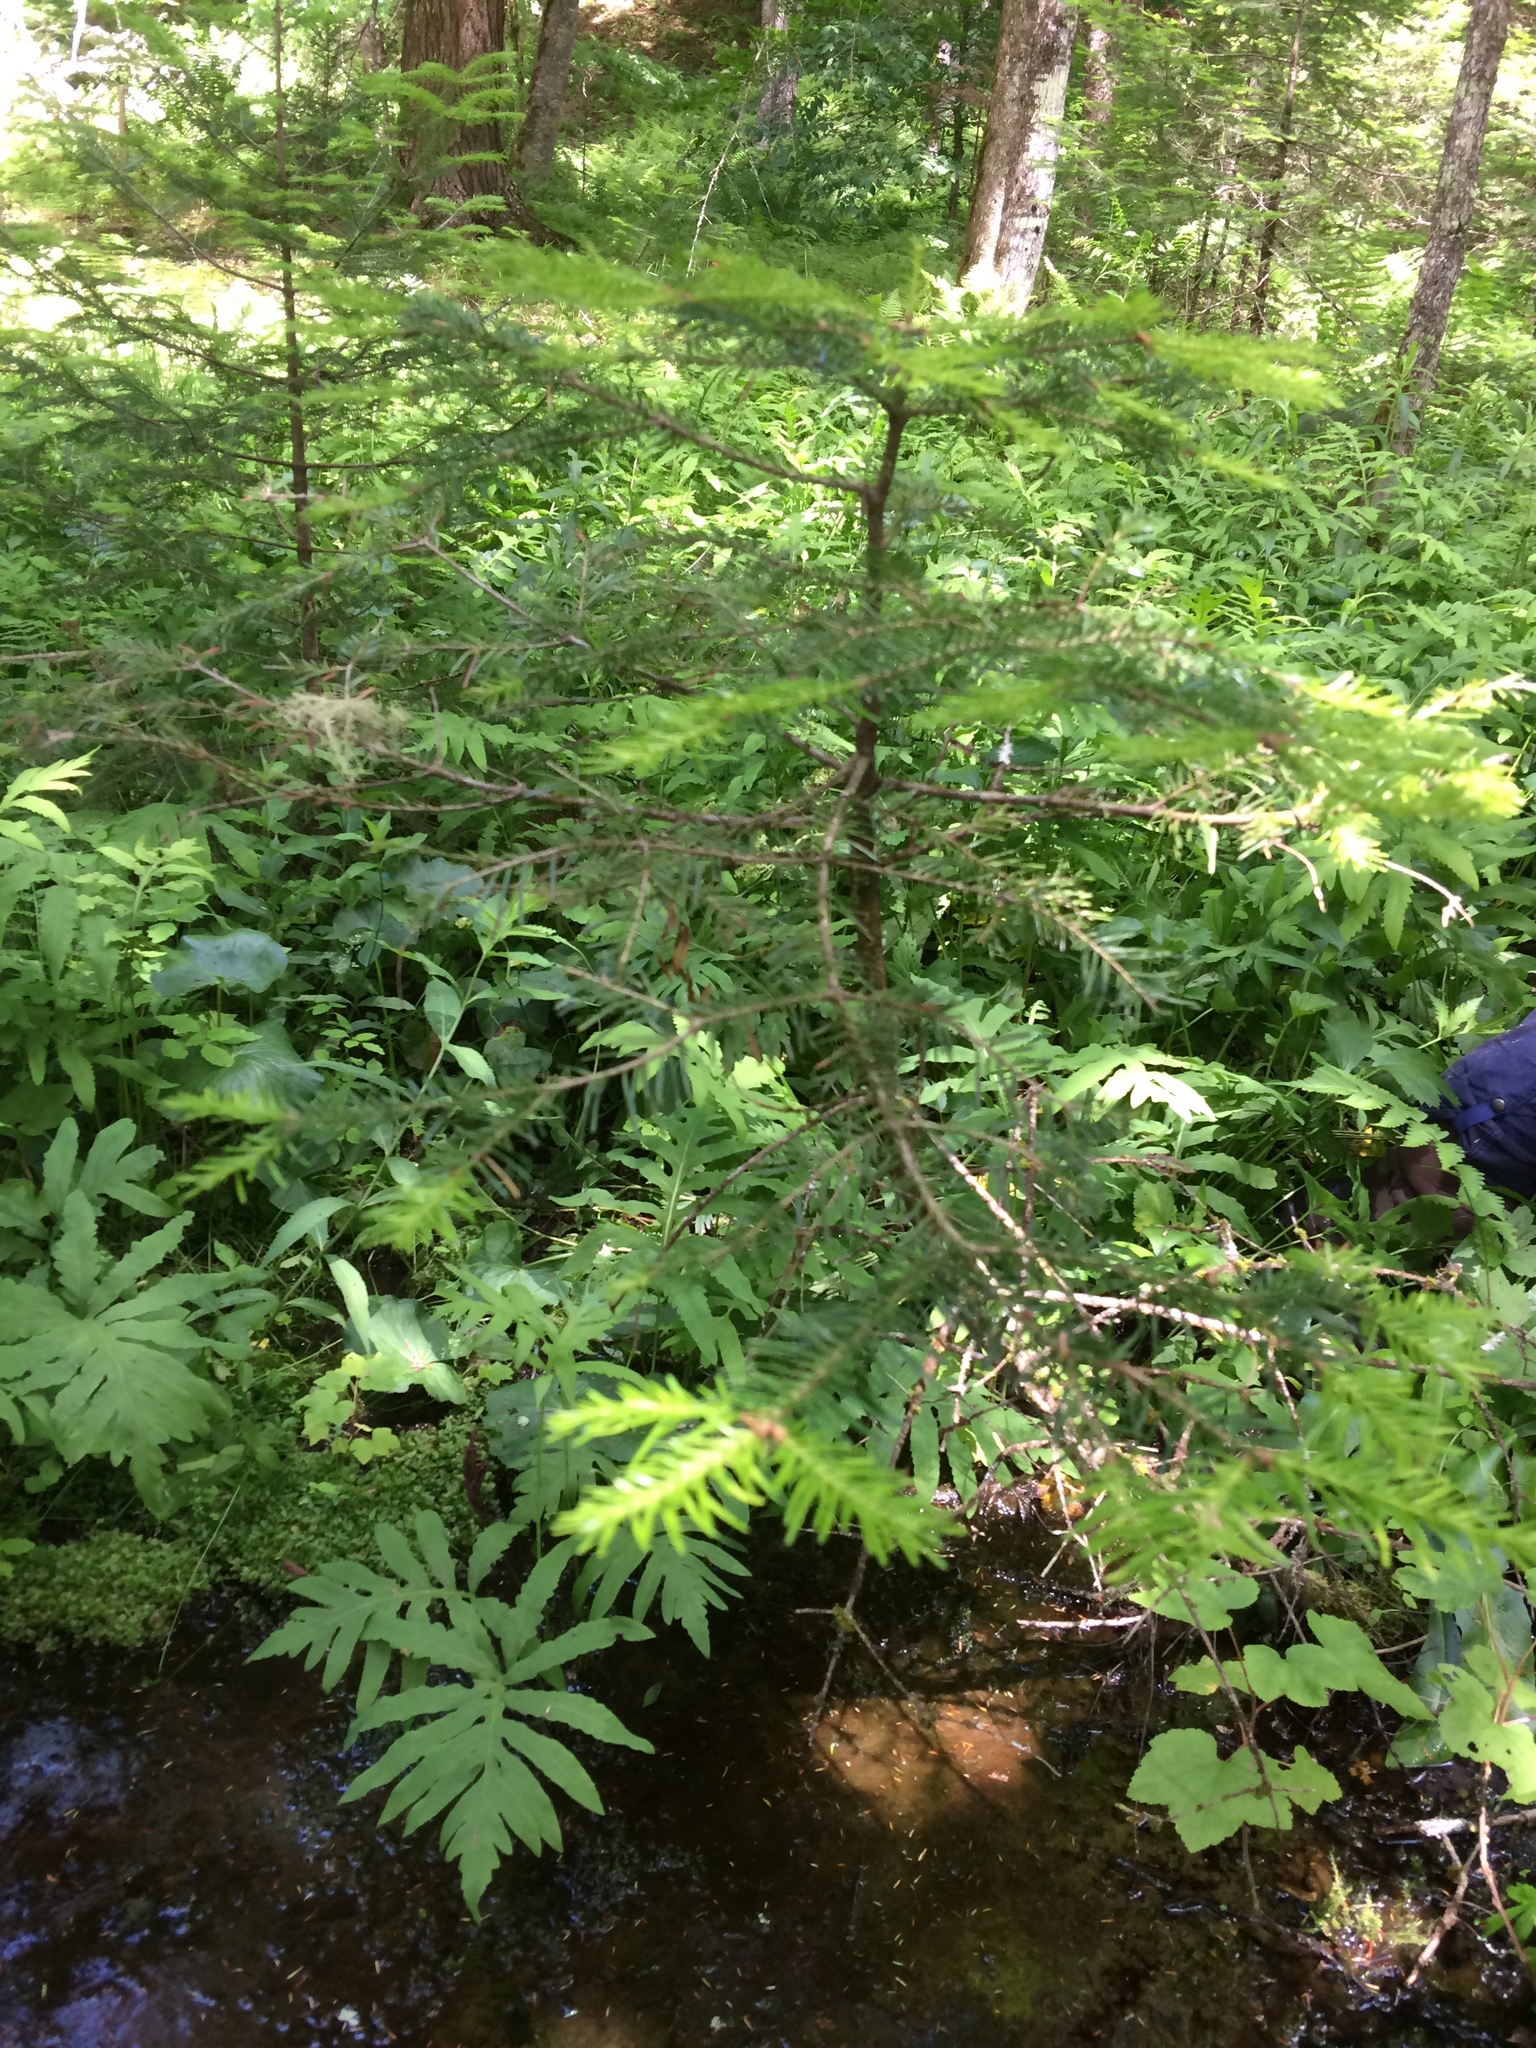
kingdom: Plantae
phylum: Tracheophyta
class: Pinopsida
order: Pinales
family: Pinaceae
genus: Abies
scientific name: Abies balsamea
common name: Balsam fir
